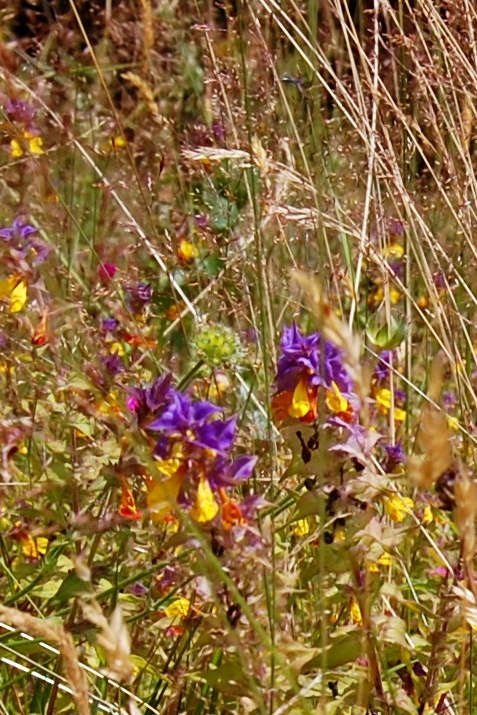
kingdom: Plantae
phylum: Tracheophyta
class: Magnoliopsida
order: Lamiales
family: Orobanchaceae
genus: Melampyrum
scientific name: Melampyrum nemorosum
